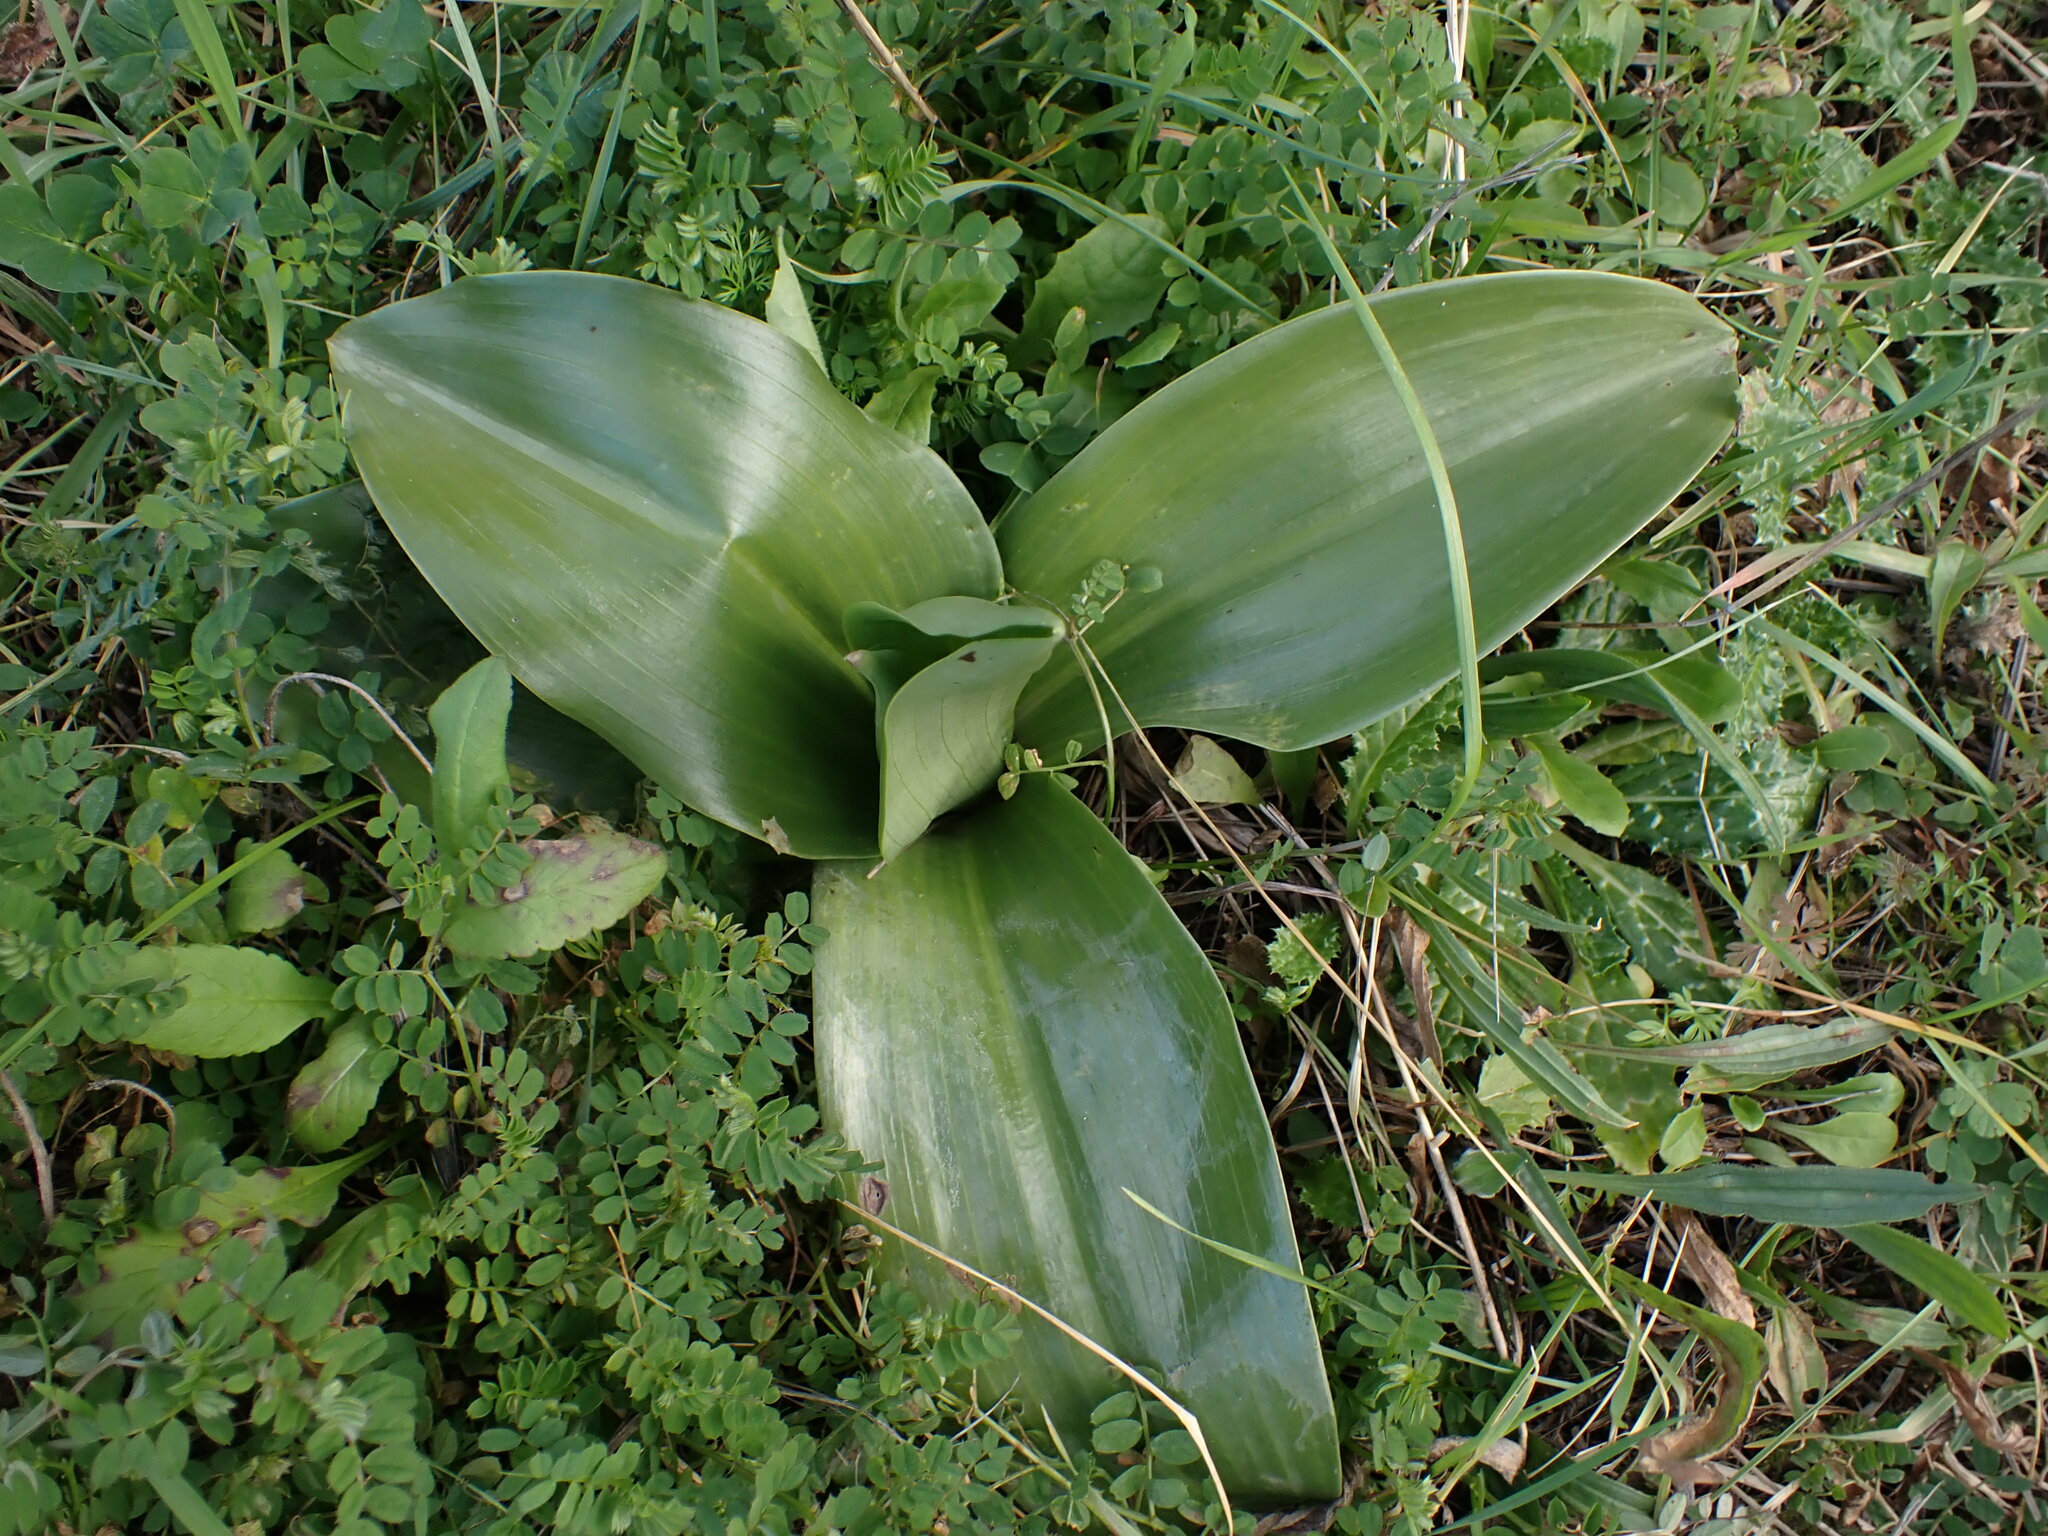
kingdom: Plantae
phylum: Tracheophyta
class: Liliopsida
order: Asparagales
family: Orchidaceae
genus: Himantoglossum
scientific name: Himantoglossum robertianum
